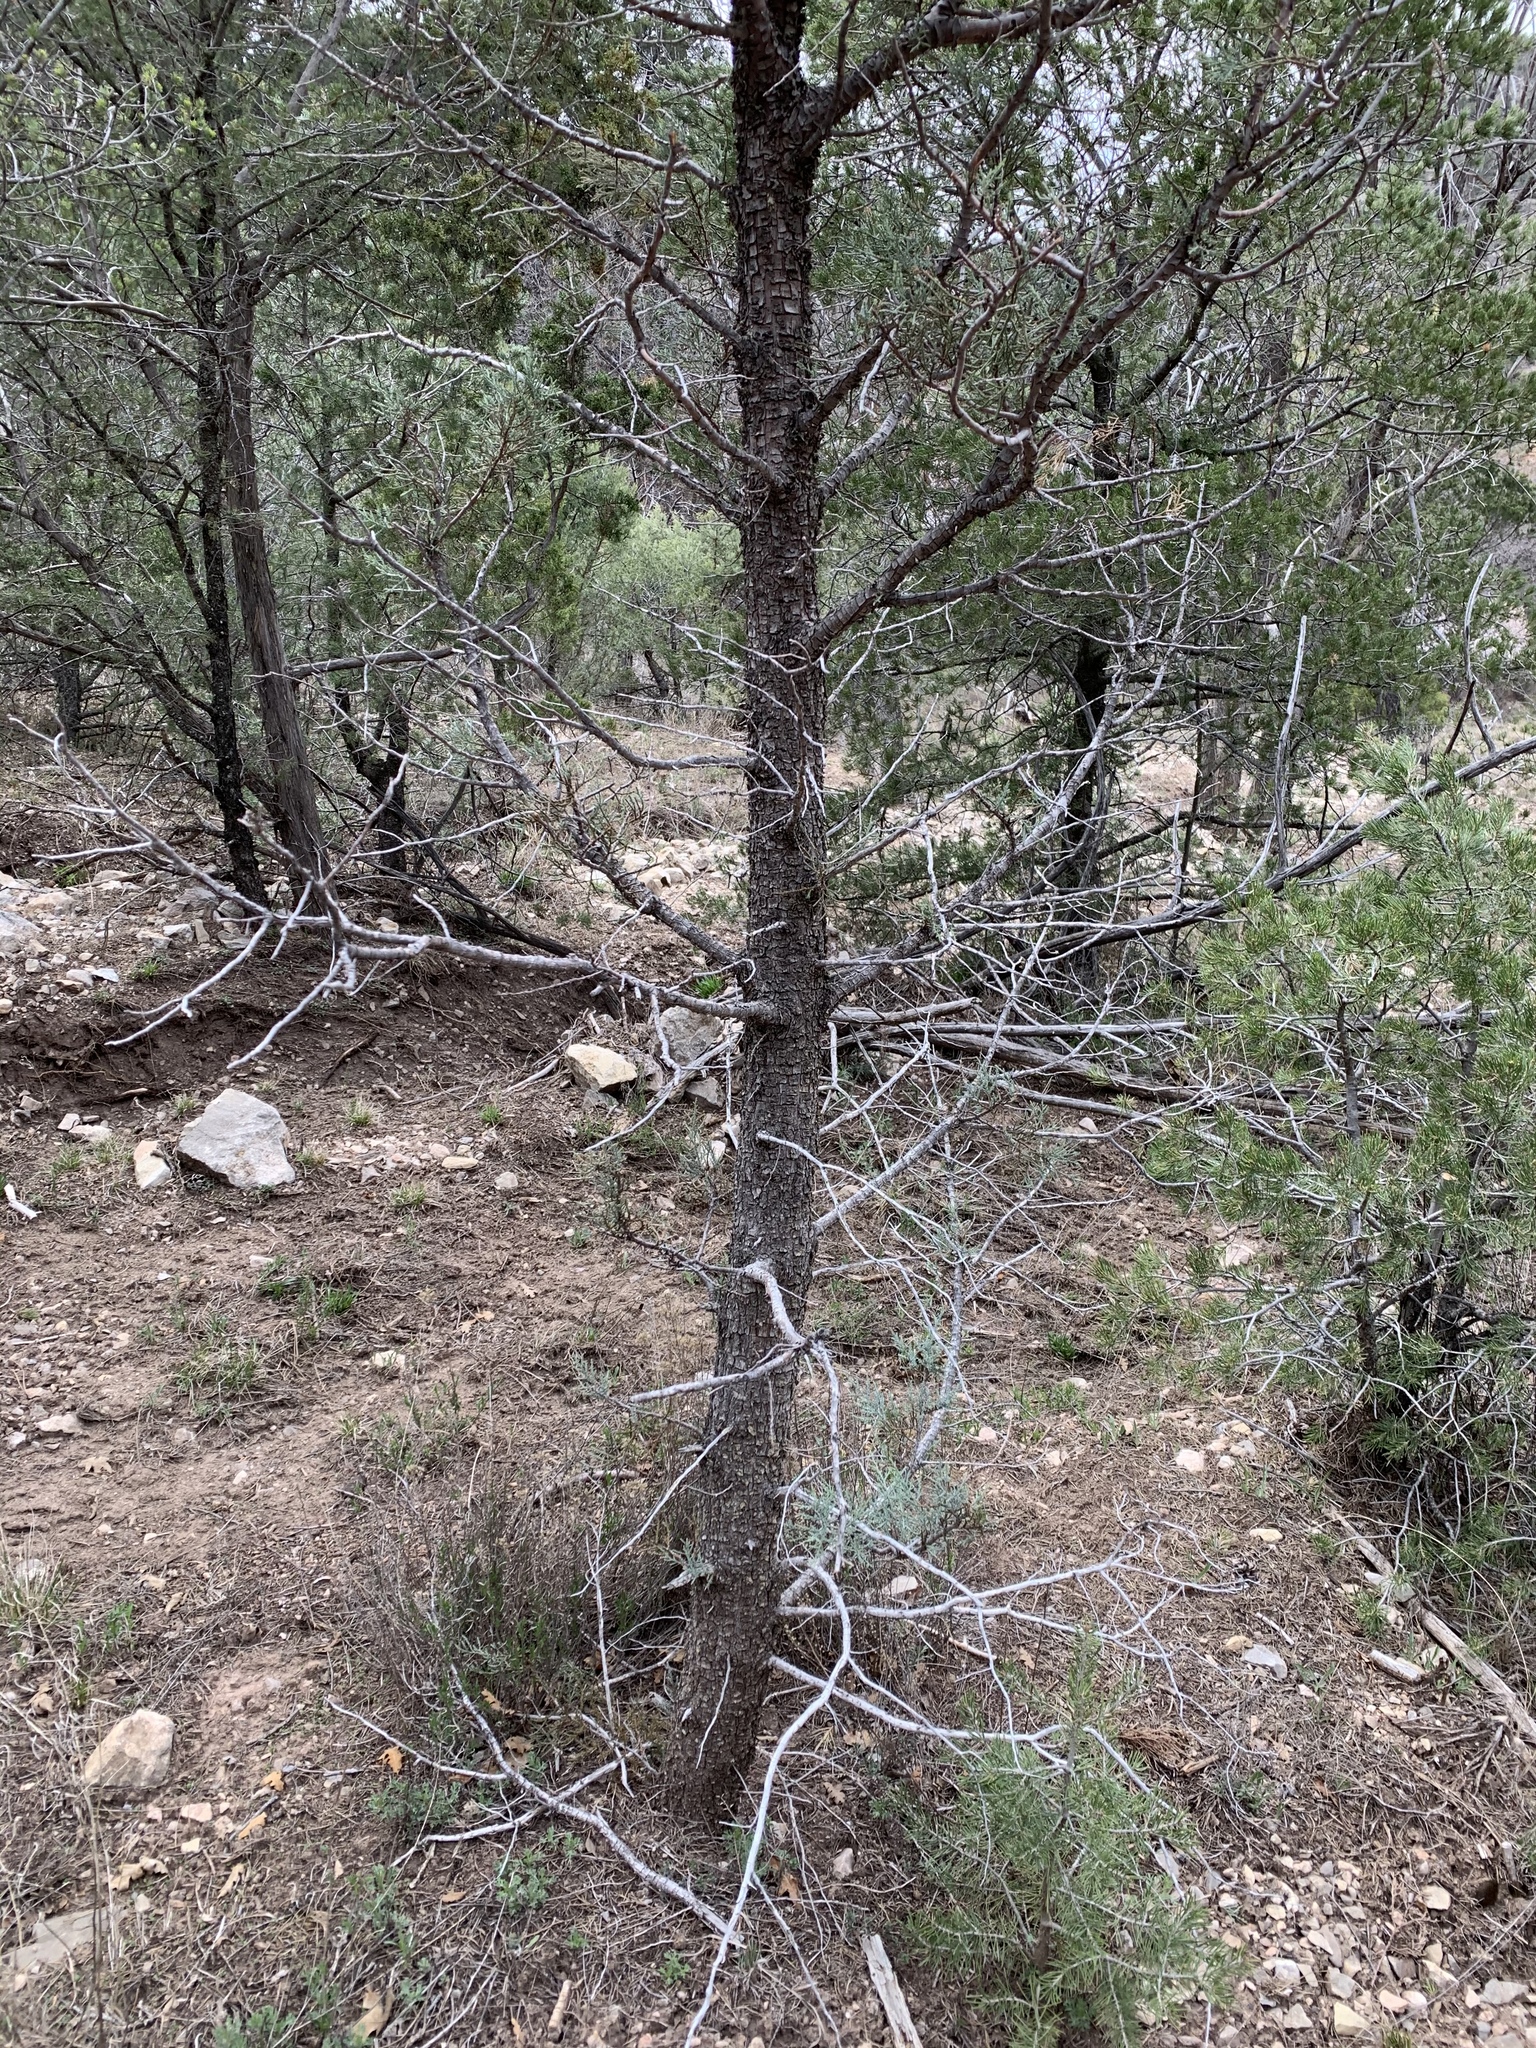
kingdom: Plantae
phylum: Tracheophyta
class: Pinopsida
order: Pinales
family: Pinaceae
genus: Pinus
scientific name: Pinus edulis
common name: Colorado pinyon
